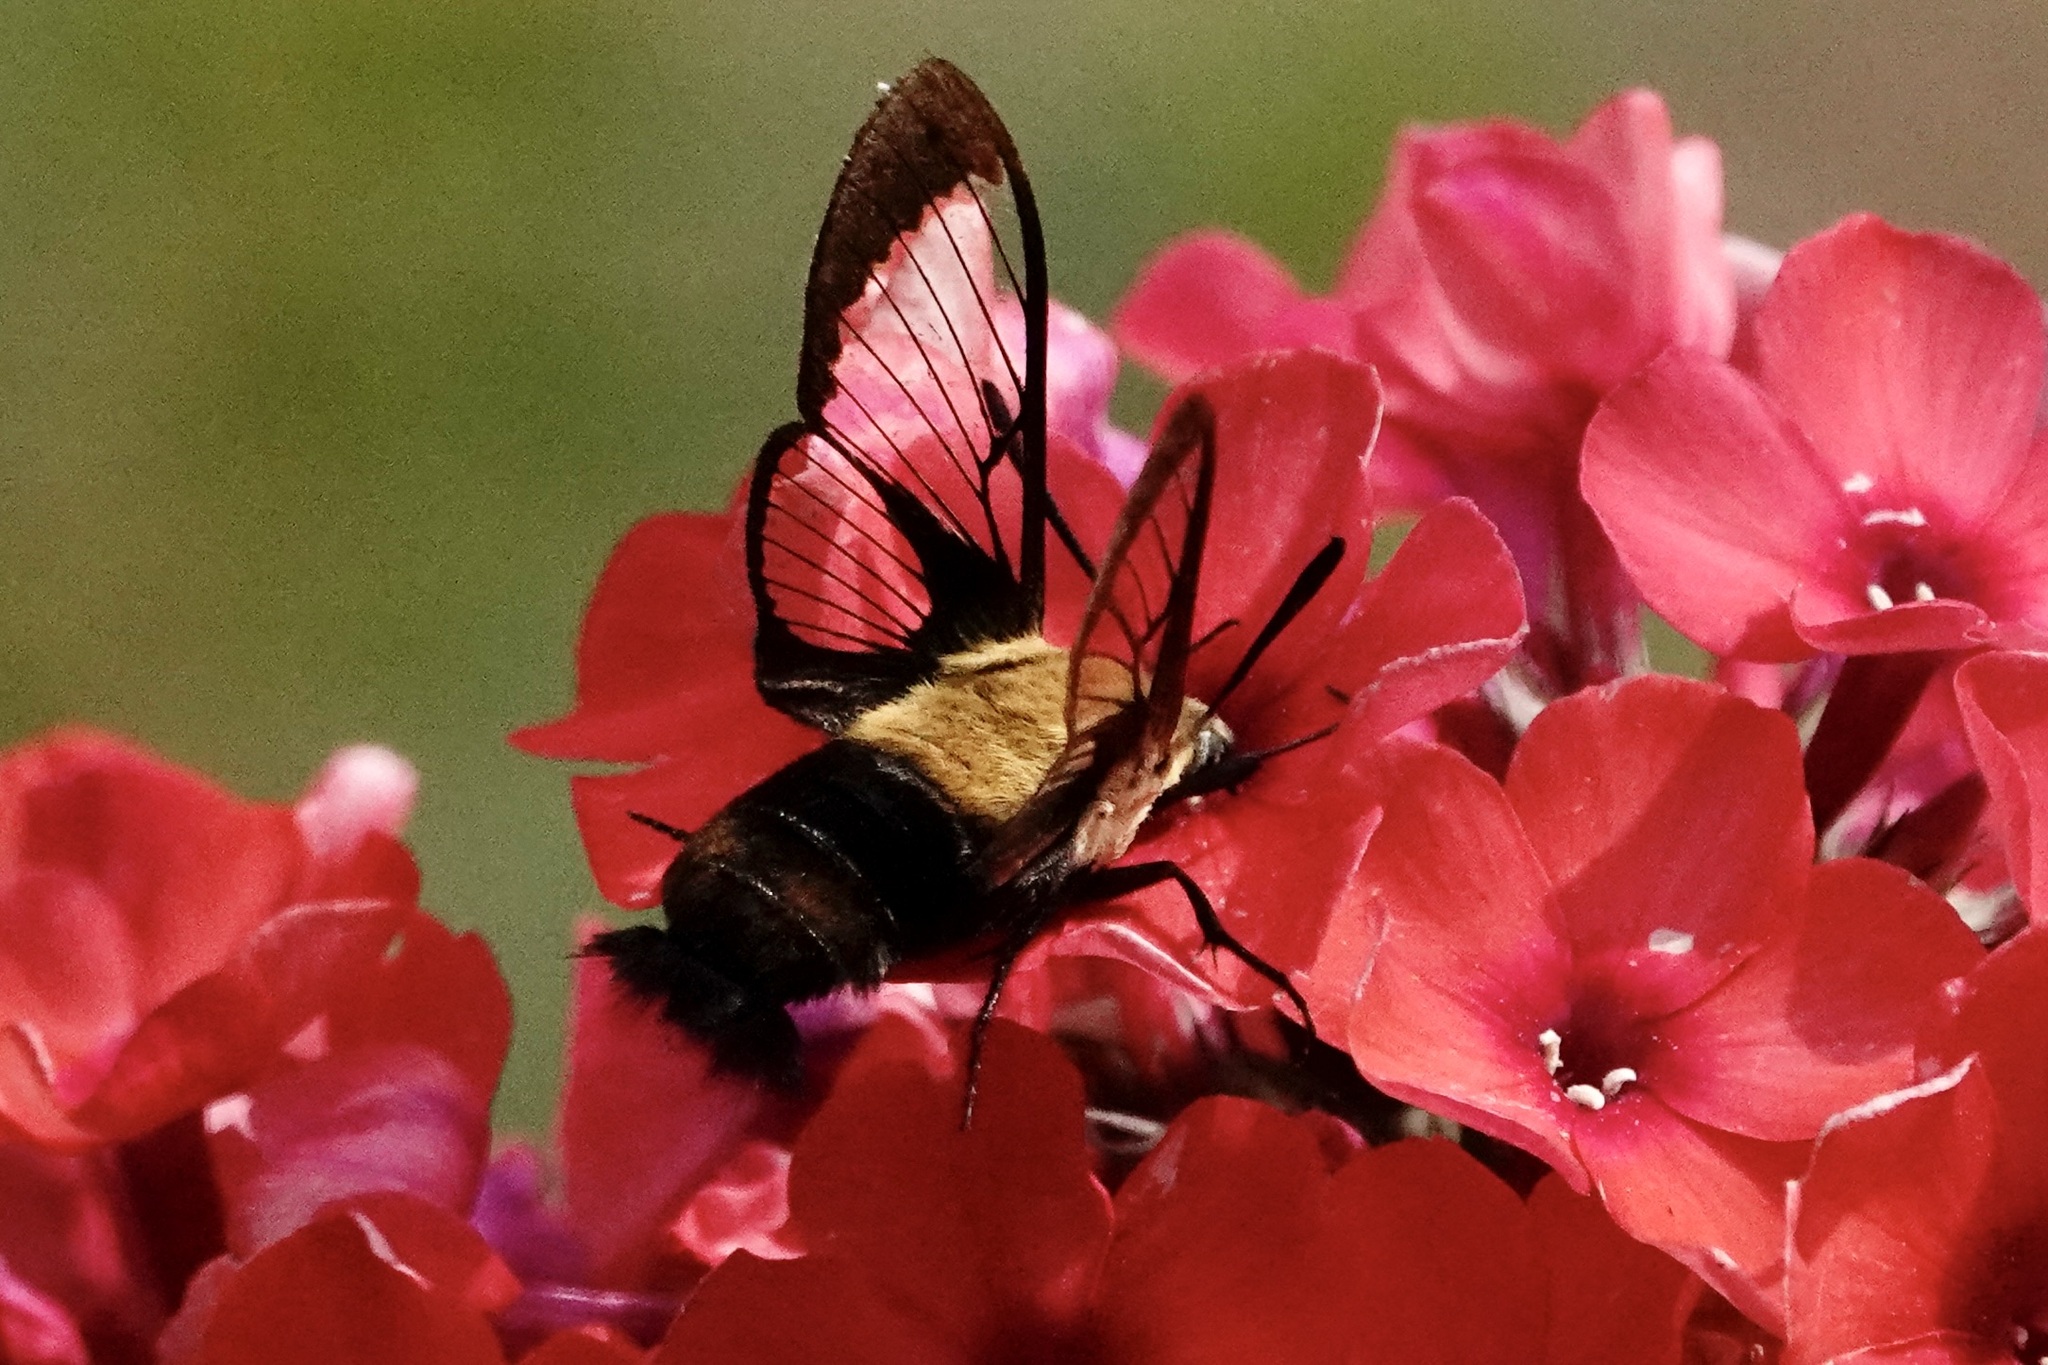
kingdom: Animalia
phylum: Arthropoda
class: Insecta
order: Lepidoptera
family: Sphingidae
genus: Hemaris
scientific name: Hemaris diffinis
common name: Bumblebee moth
